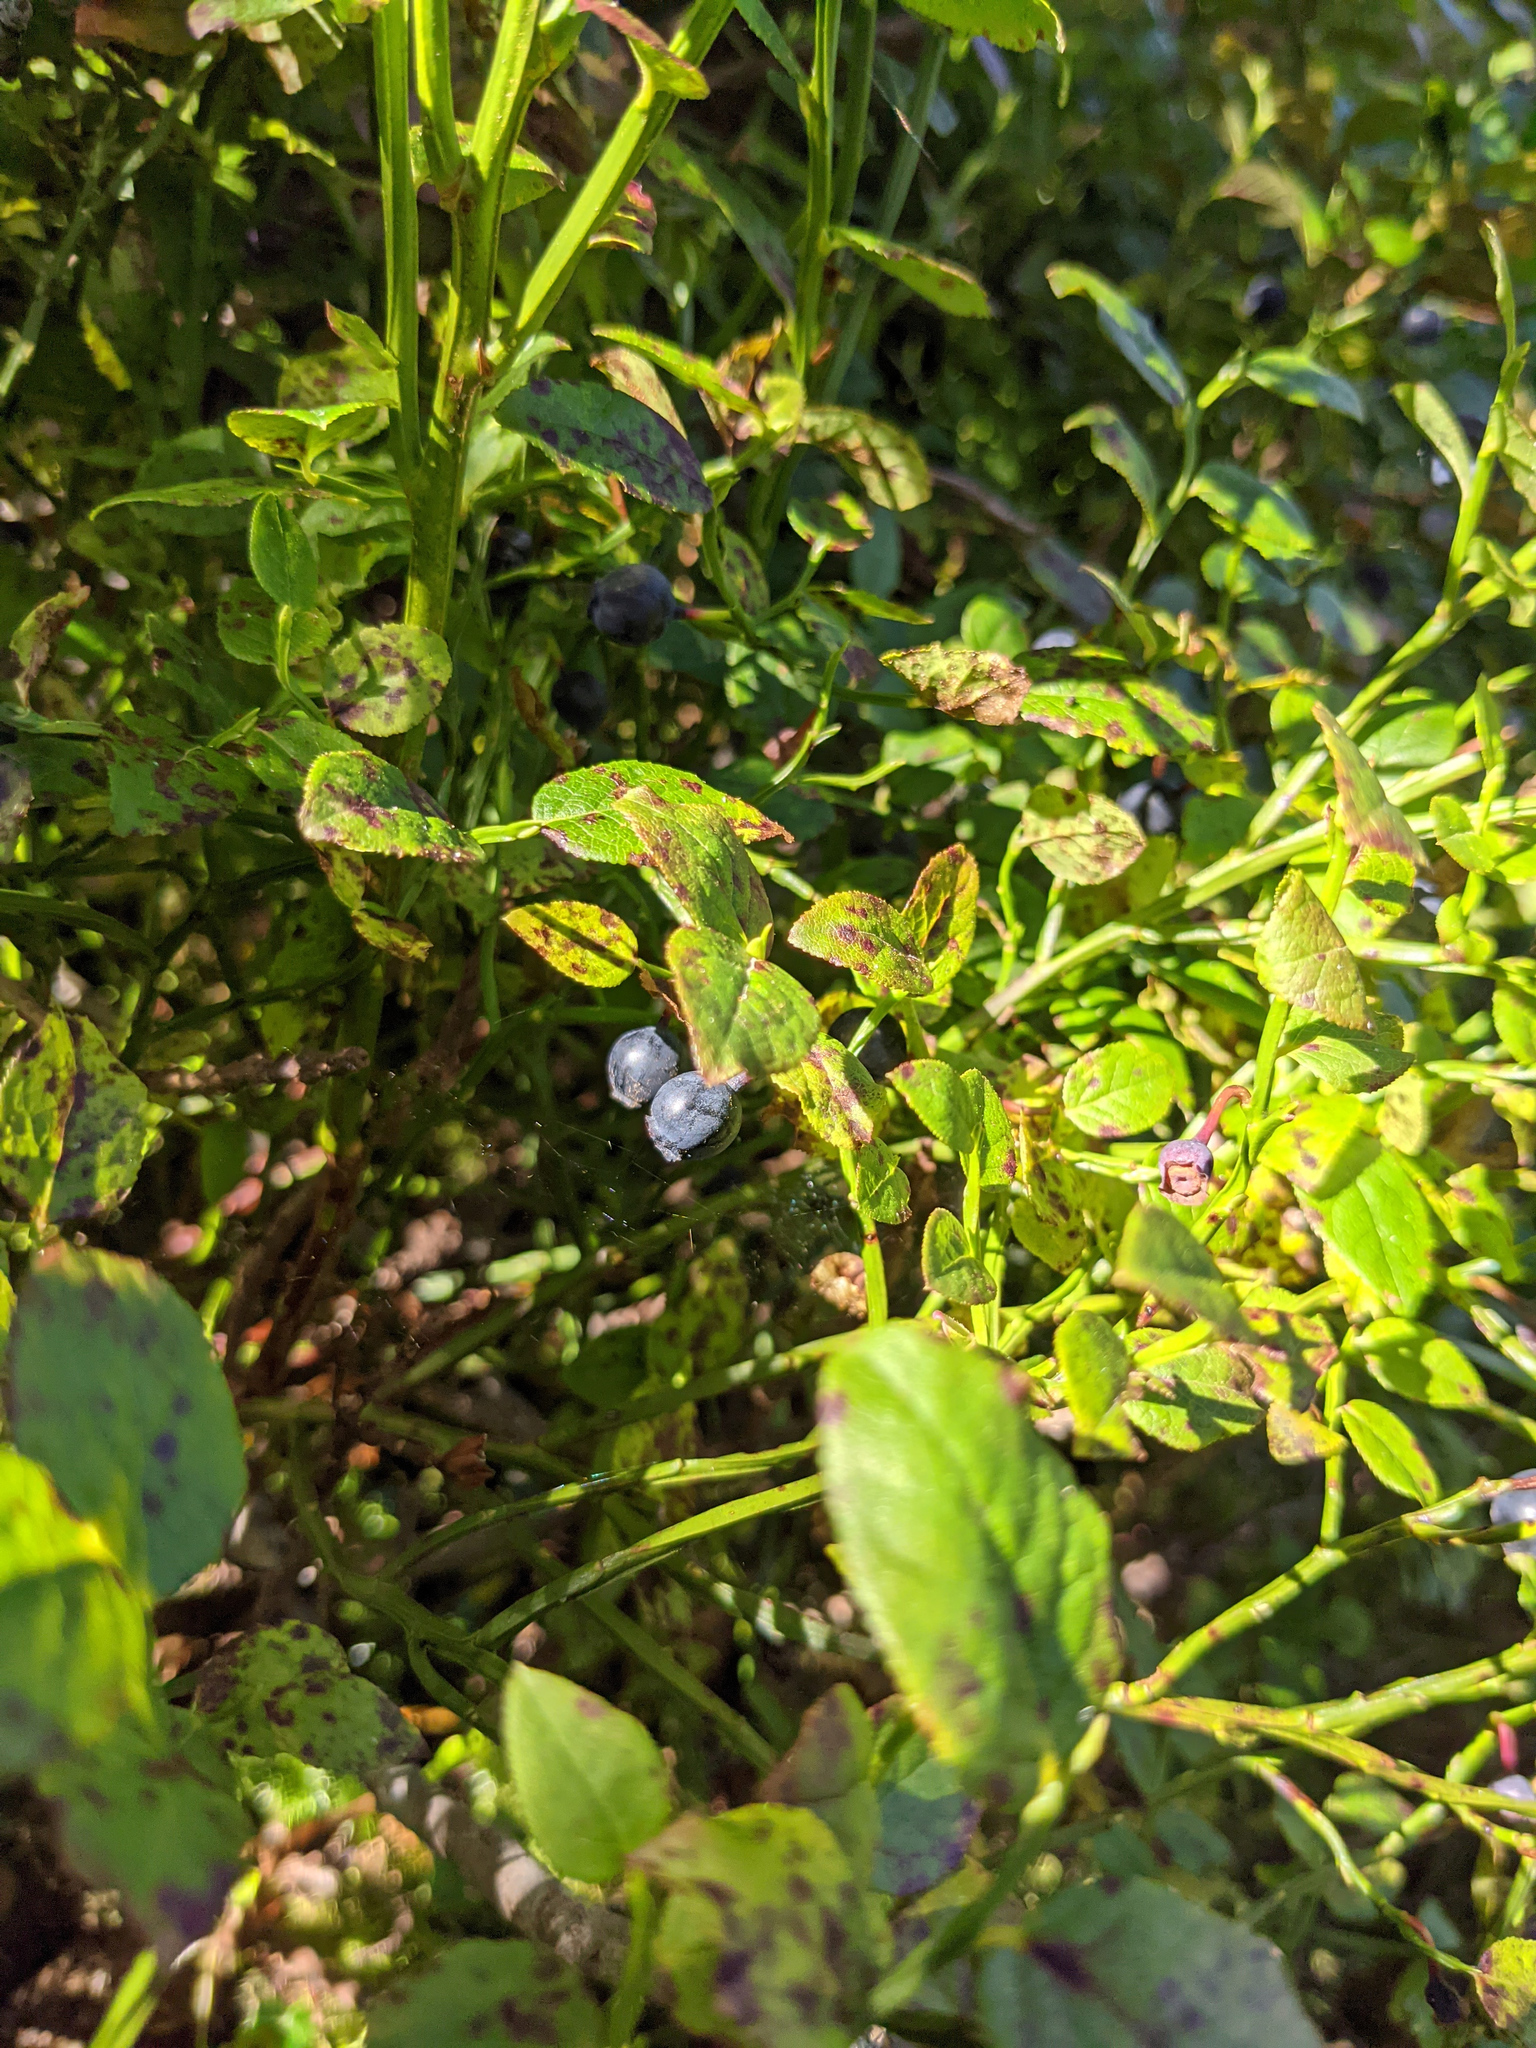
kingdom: Plantae
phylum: Tracheophyta
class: Magnoliopsida
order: Ericales
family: Ericaceae
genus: Vaccinium
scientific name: Vaccinium myrtillus
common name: Bilberry
